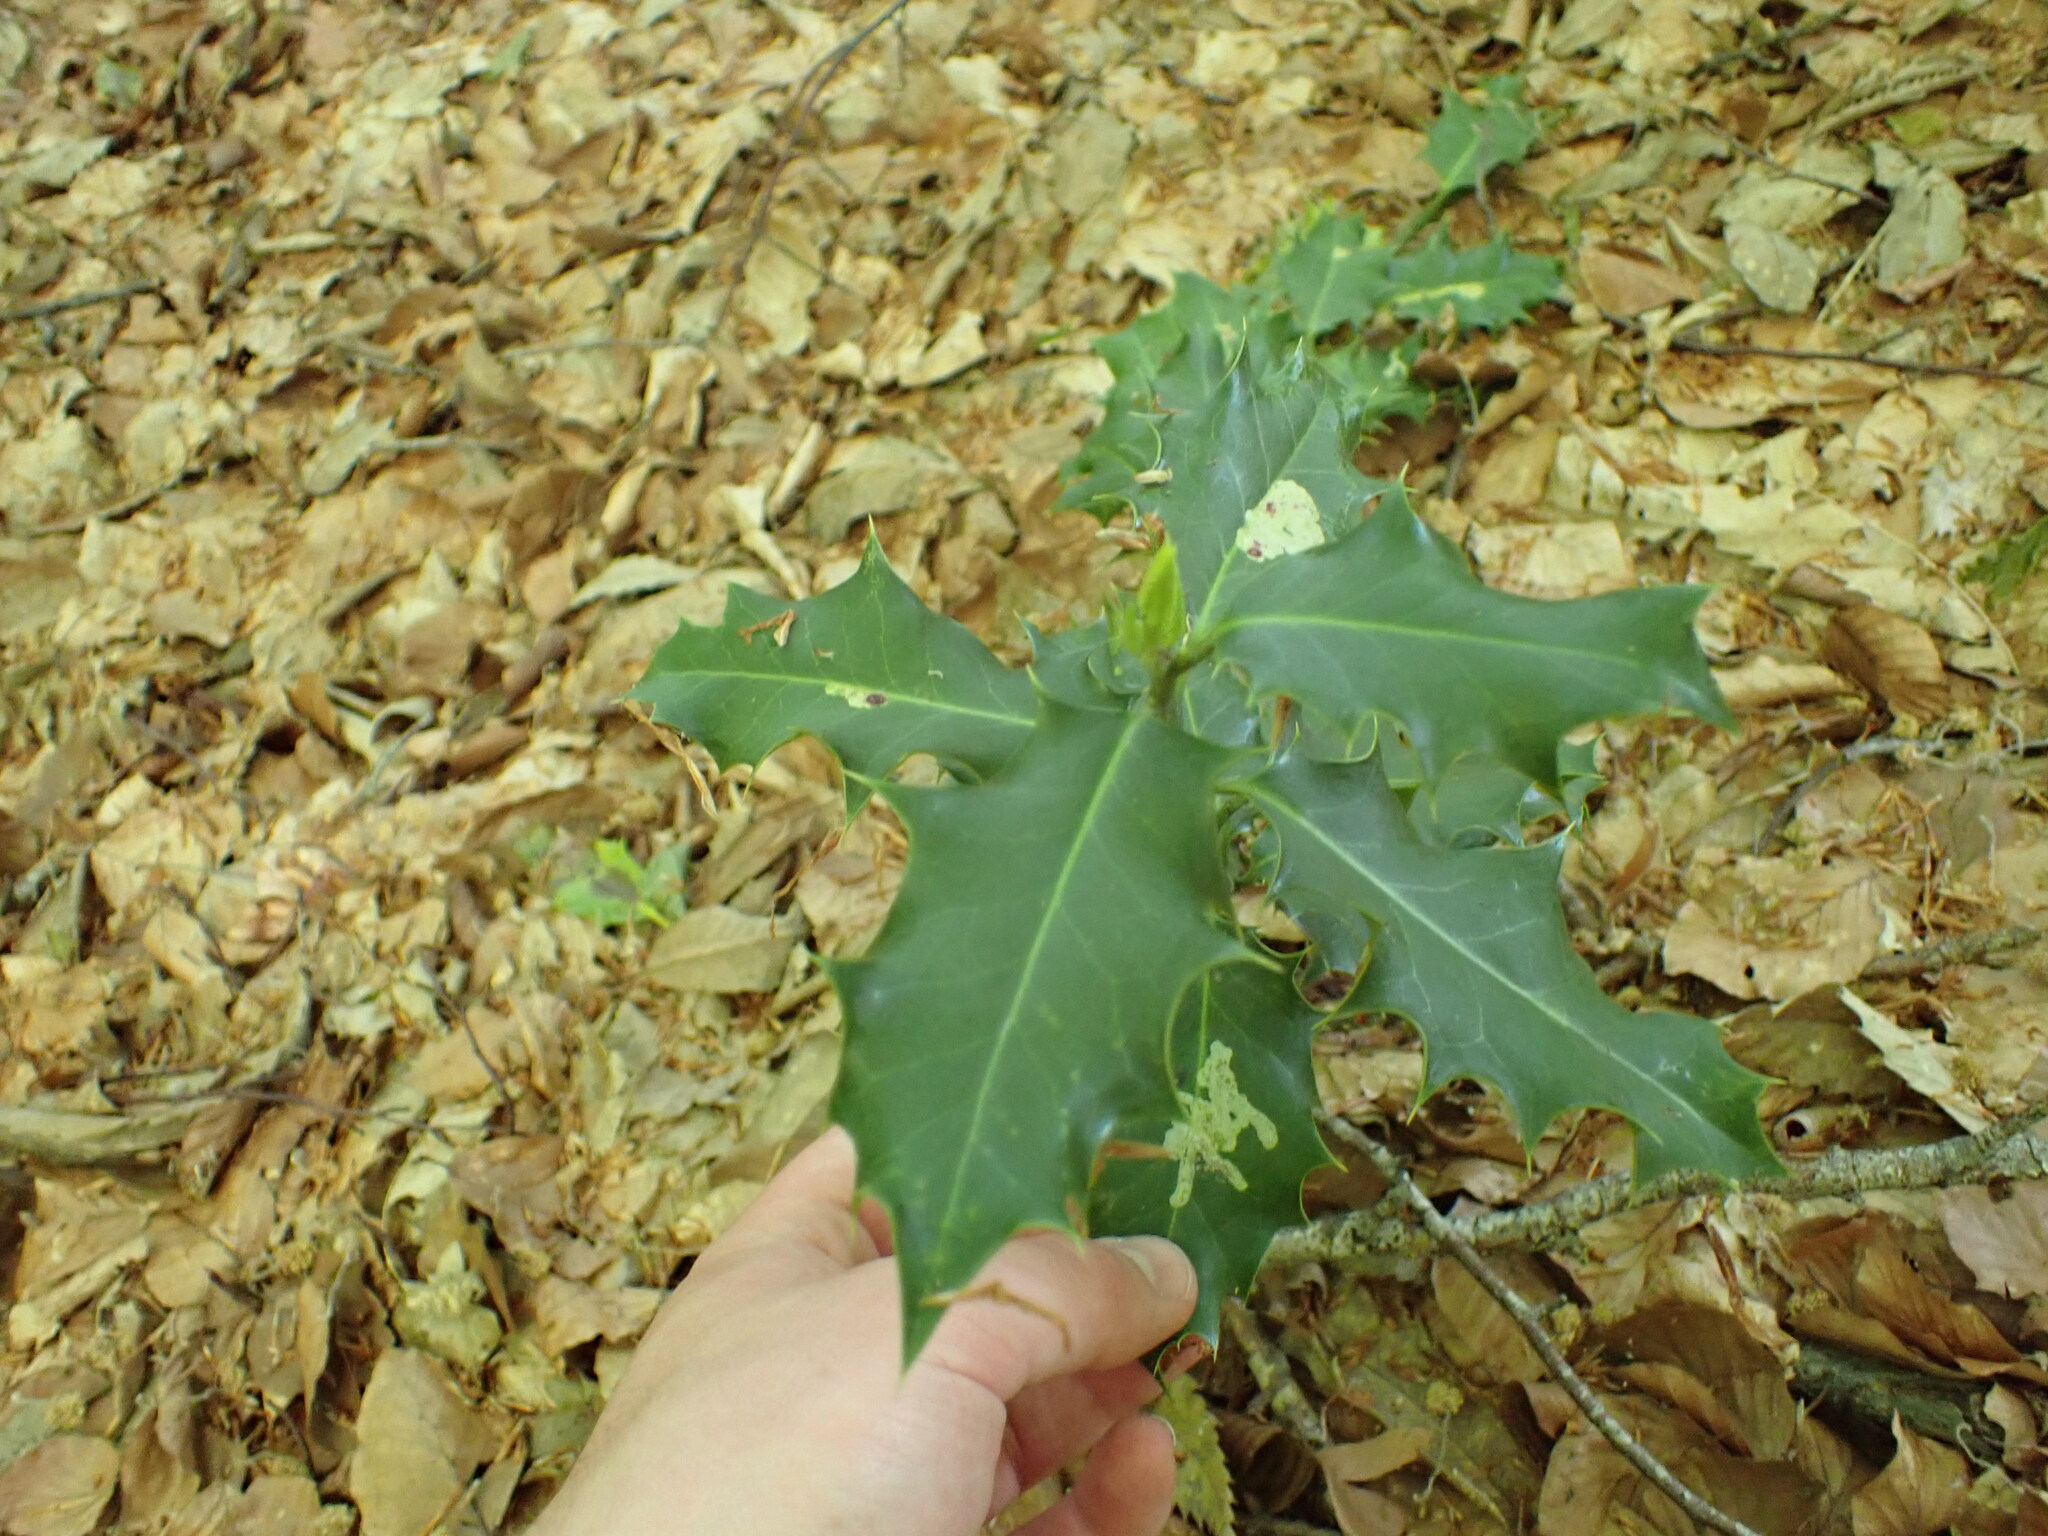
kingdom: Plantae
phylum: Tracheophyta
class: Magnoliopsida
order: Aquifoliales
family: Aquifoliaceae
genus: Ilex
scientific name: Ilex aquifolium
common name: English holly
